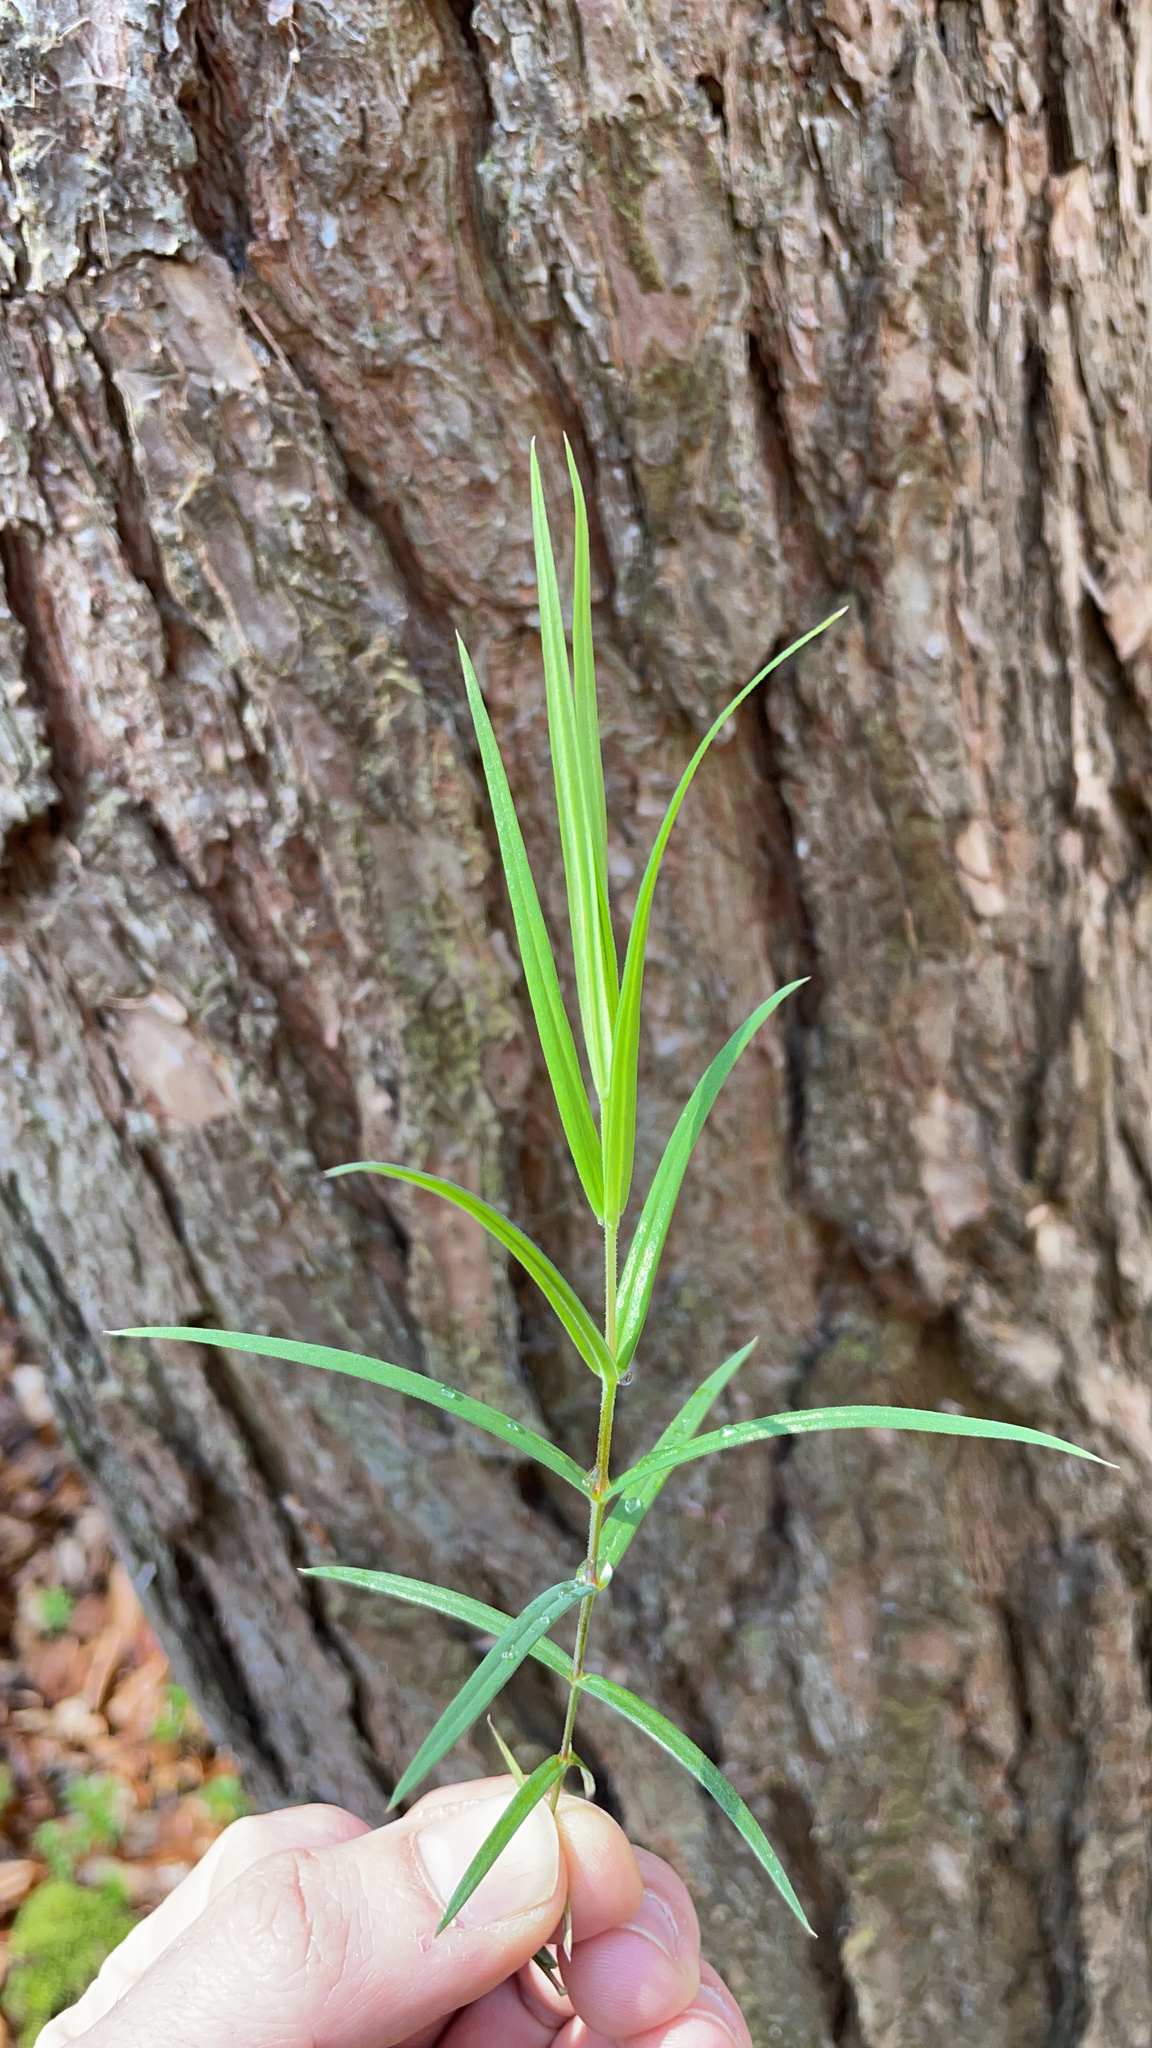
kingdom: Plantae
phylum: Tracheophyta
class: Magnoliopsida
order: Caryophyllales
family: Caryophyllaceae
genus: Rabelera
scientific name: Rabelera holostea
